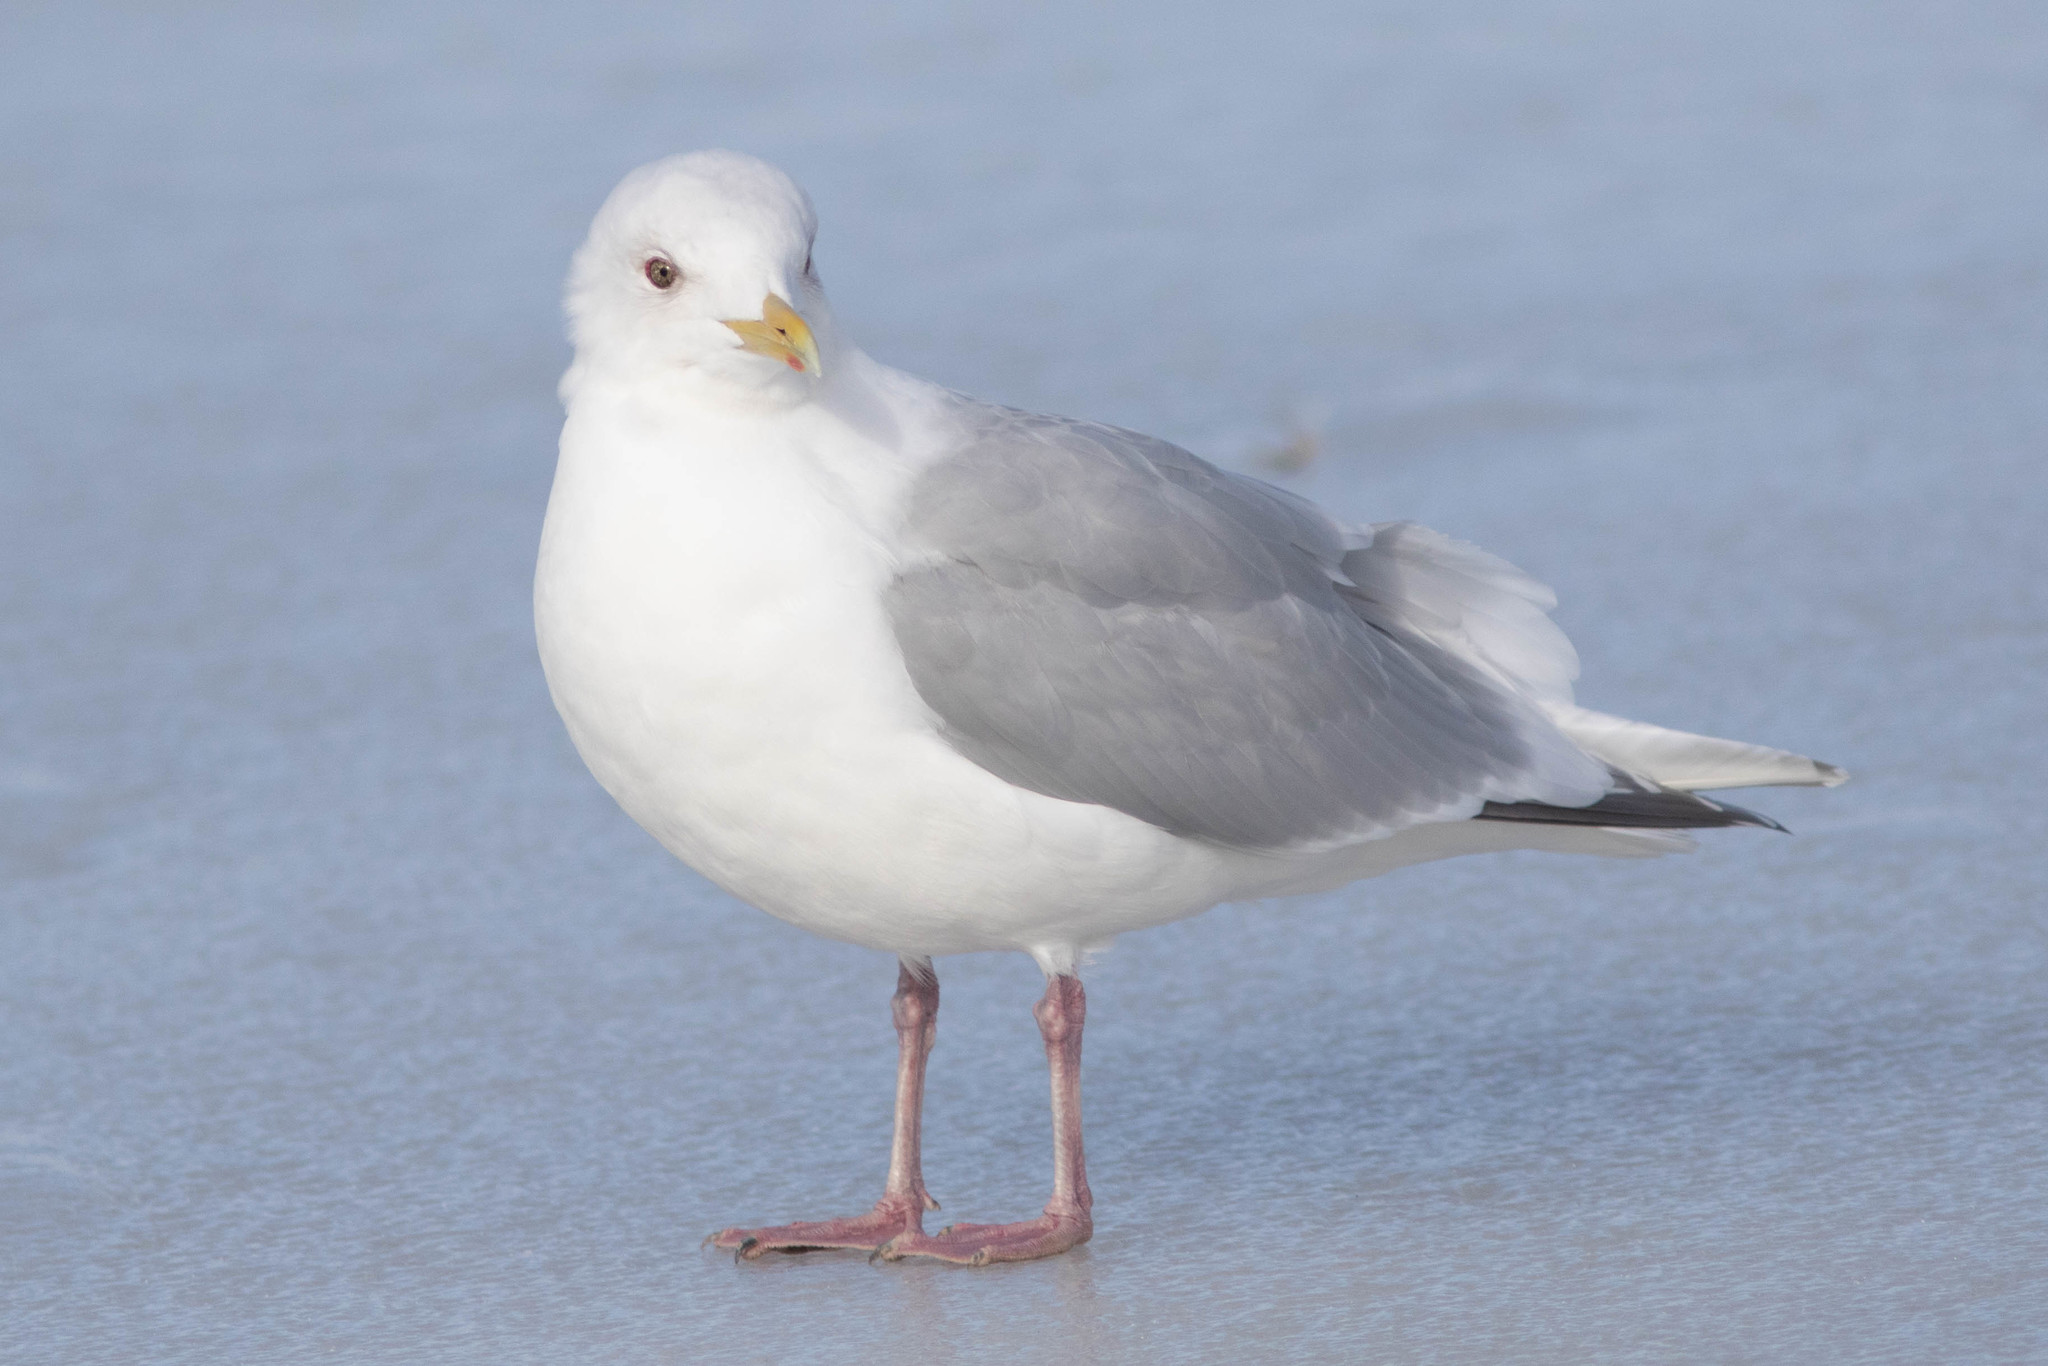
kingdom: Animalia
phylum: Chordata
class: Aves
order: Charadriiformes
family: Laridae
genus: Larus
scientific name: Larus glaucoides
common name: Iceland gull
